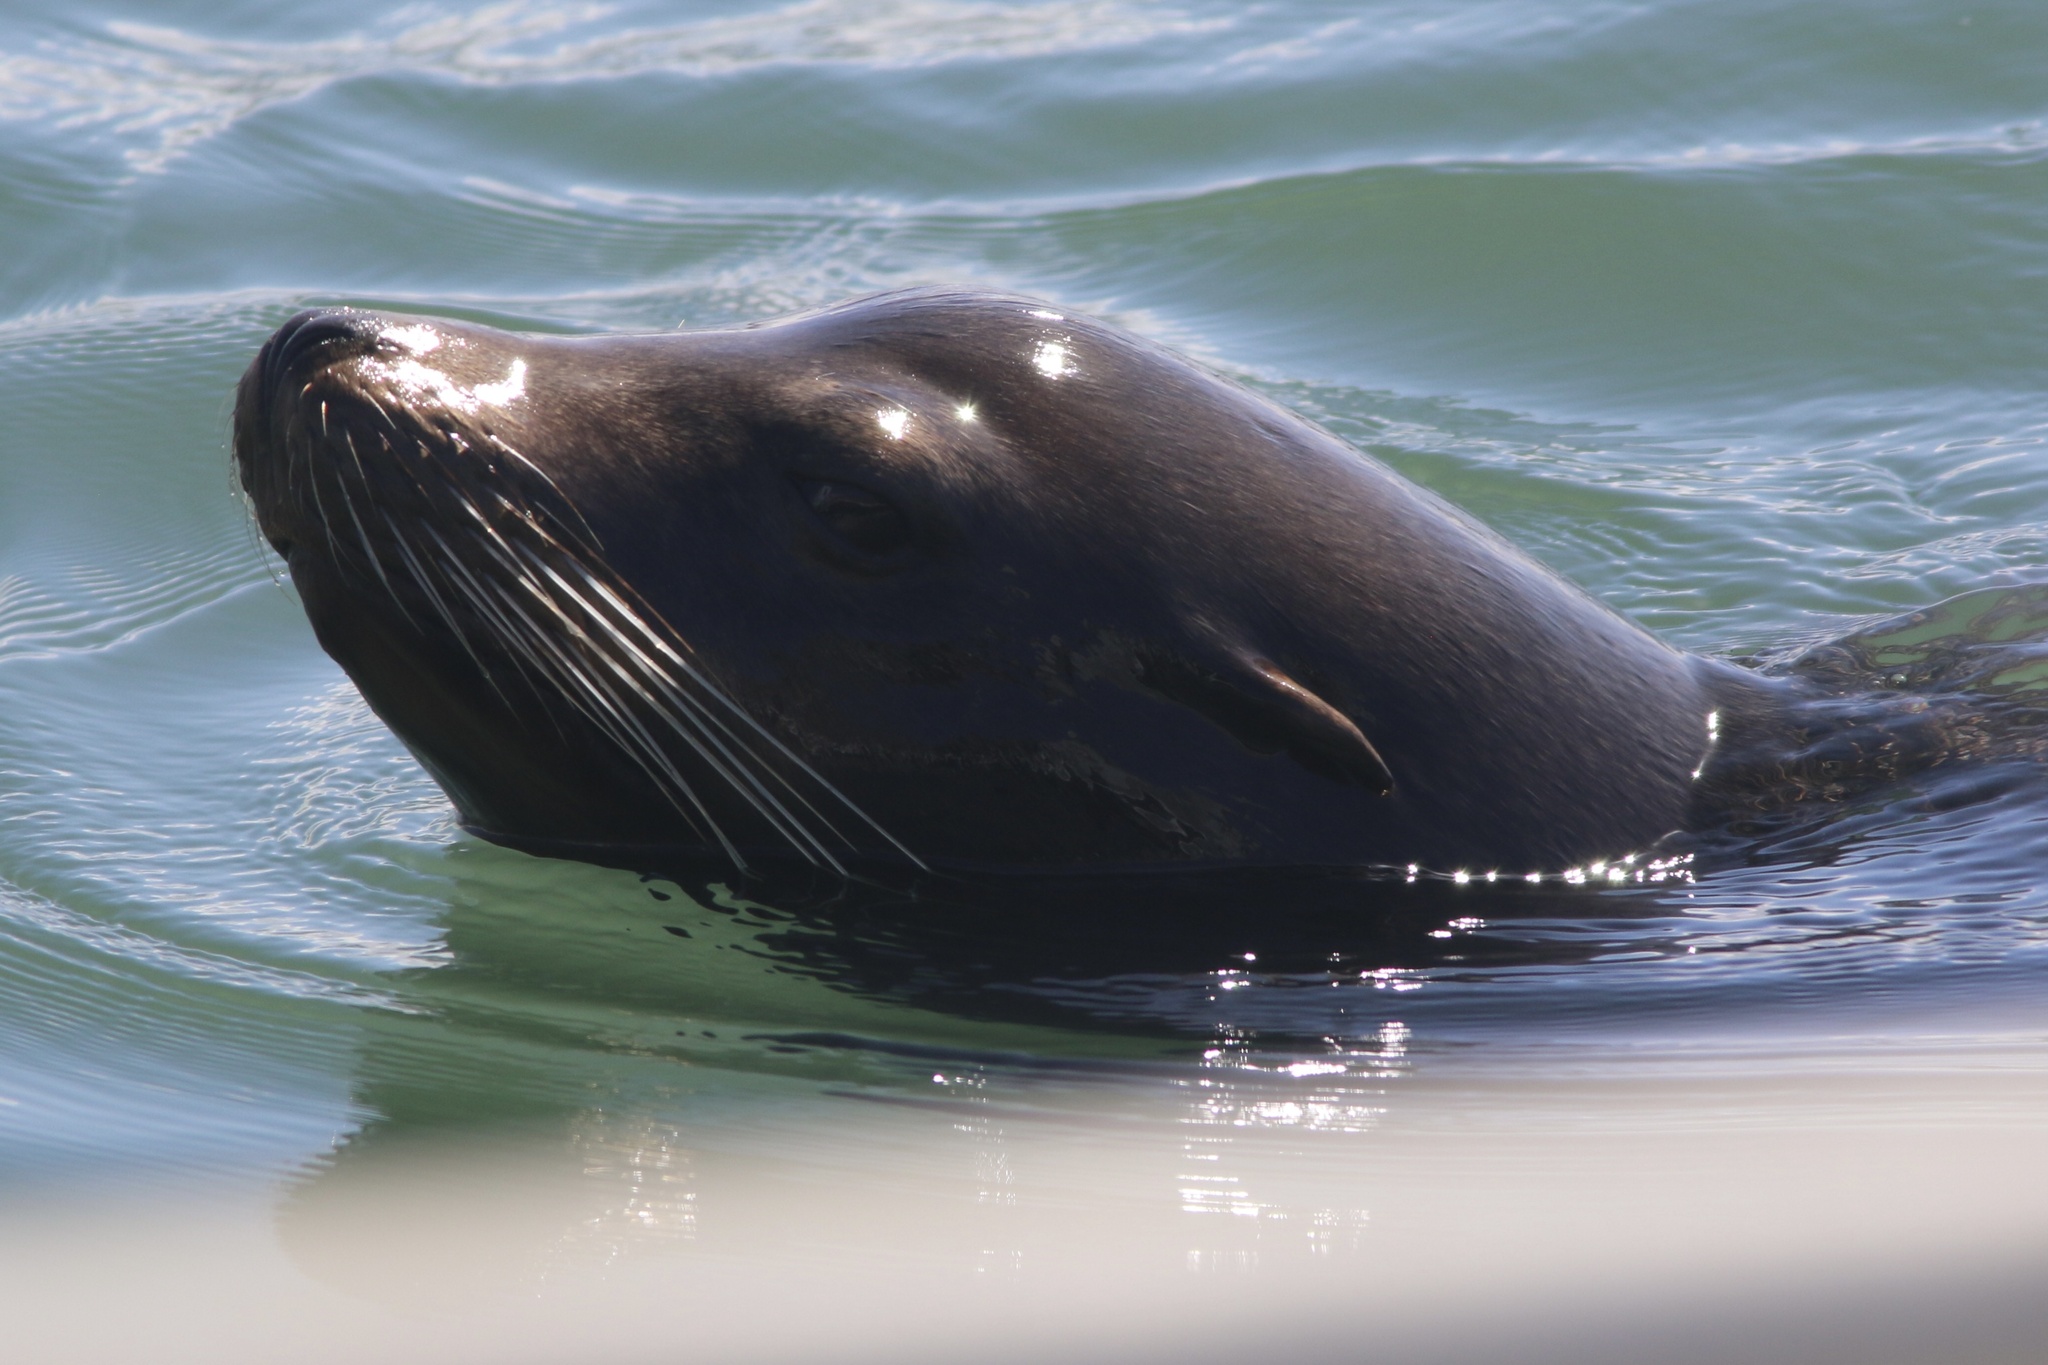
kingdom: Animalia
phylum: Chordata
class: Mammalia
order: Carnivora
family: Otariidae
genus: Zalophus
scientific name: Zalophus californianus
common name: California sea lion
